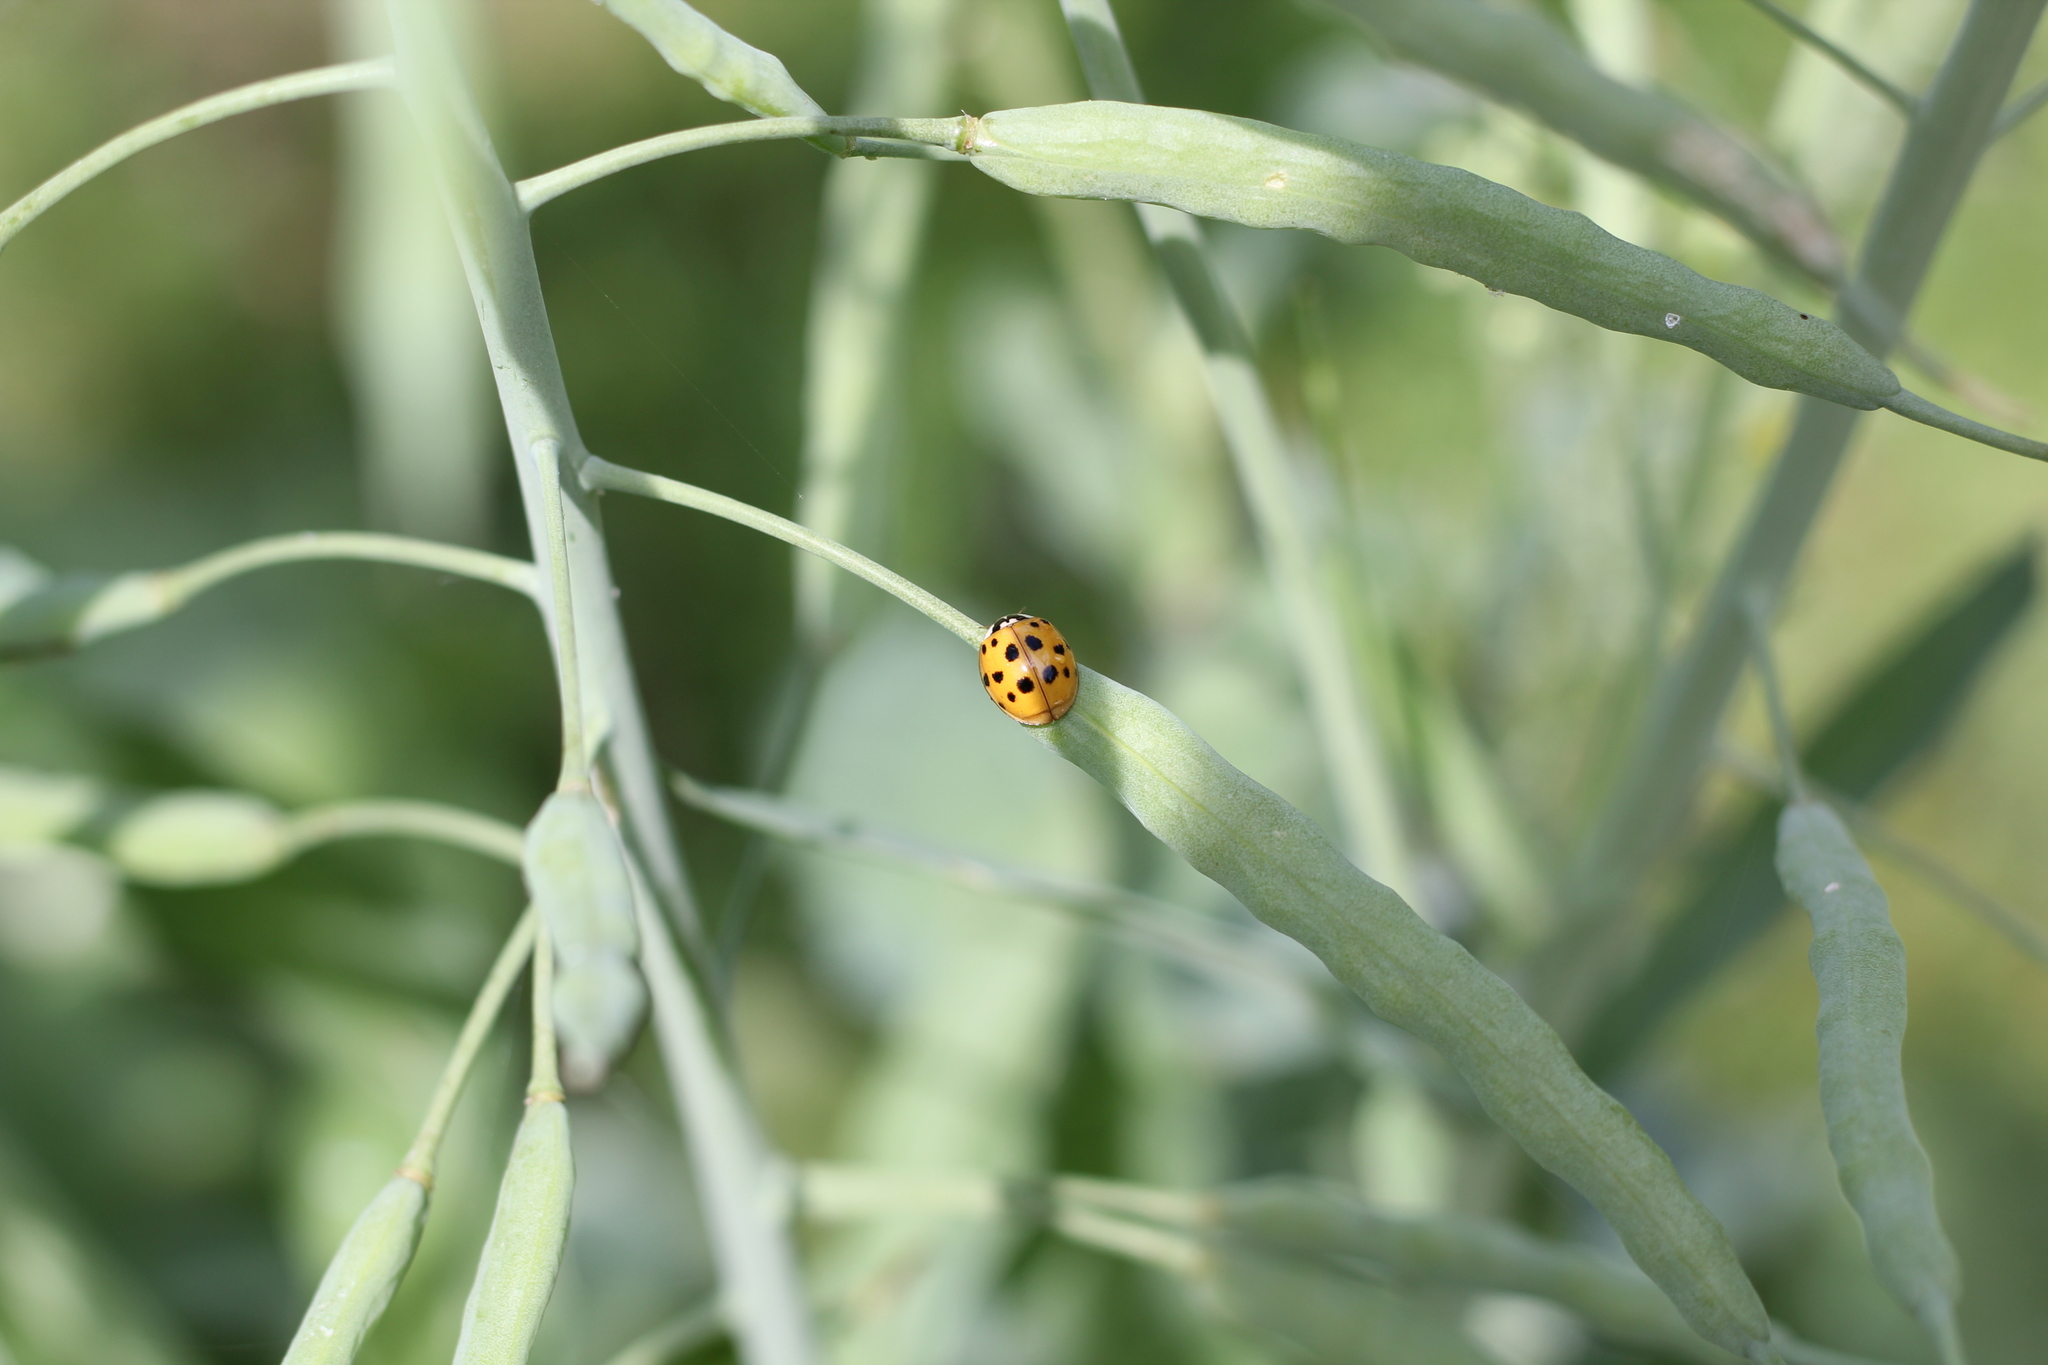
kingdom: Animalia
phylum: Arthropoda
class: Insecta
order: Coleoptera
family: Coccinellidae
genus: Harmonia
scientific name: Harmonia axyridis
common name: Harlequin ladybird
